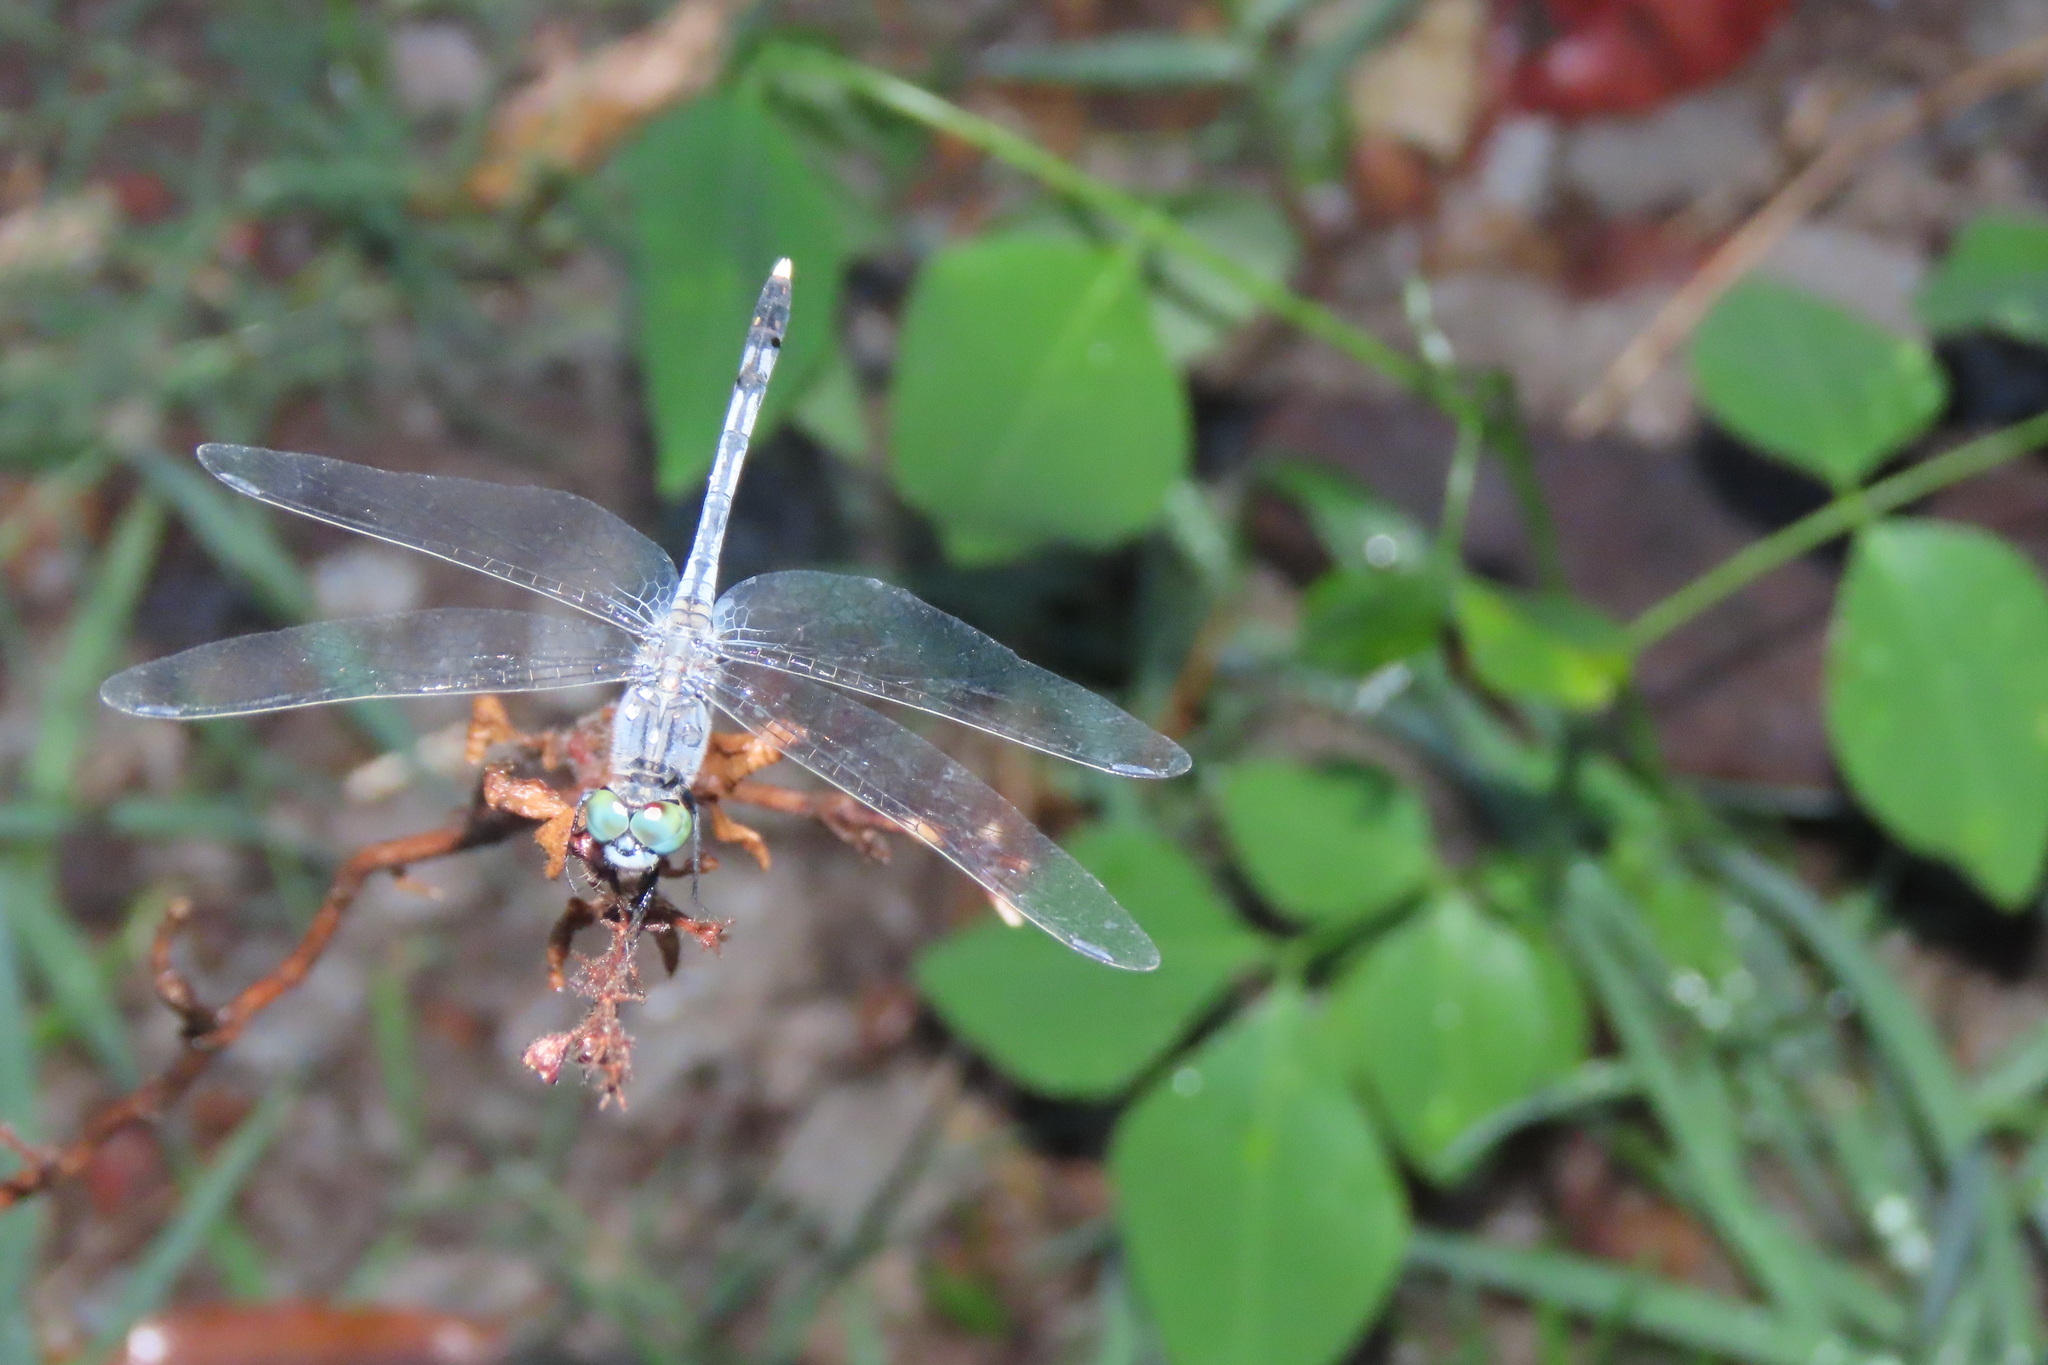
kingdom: Animalia
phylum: Arthropoda
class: Insecta
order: Odonata
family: Libellulidae
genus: Diplacodes
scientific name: Diplacodes trivialis
